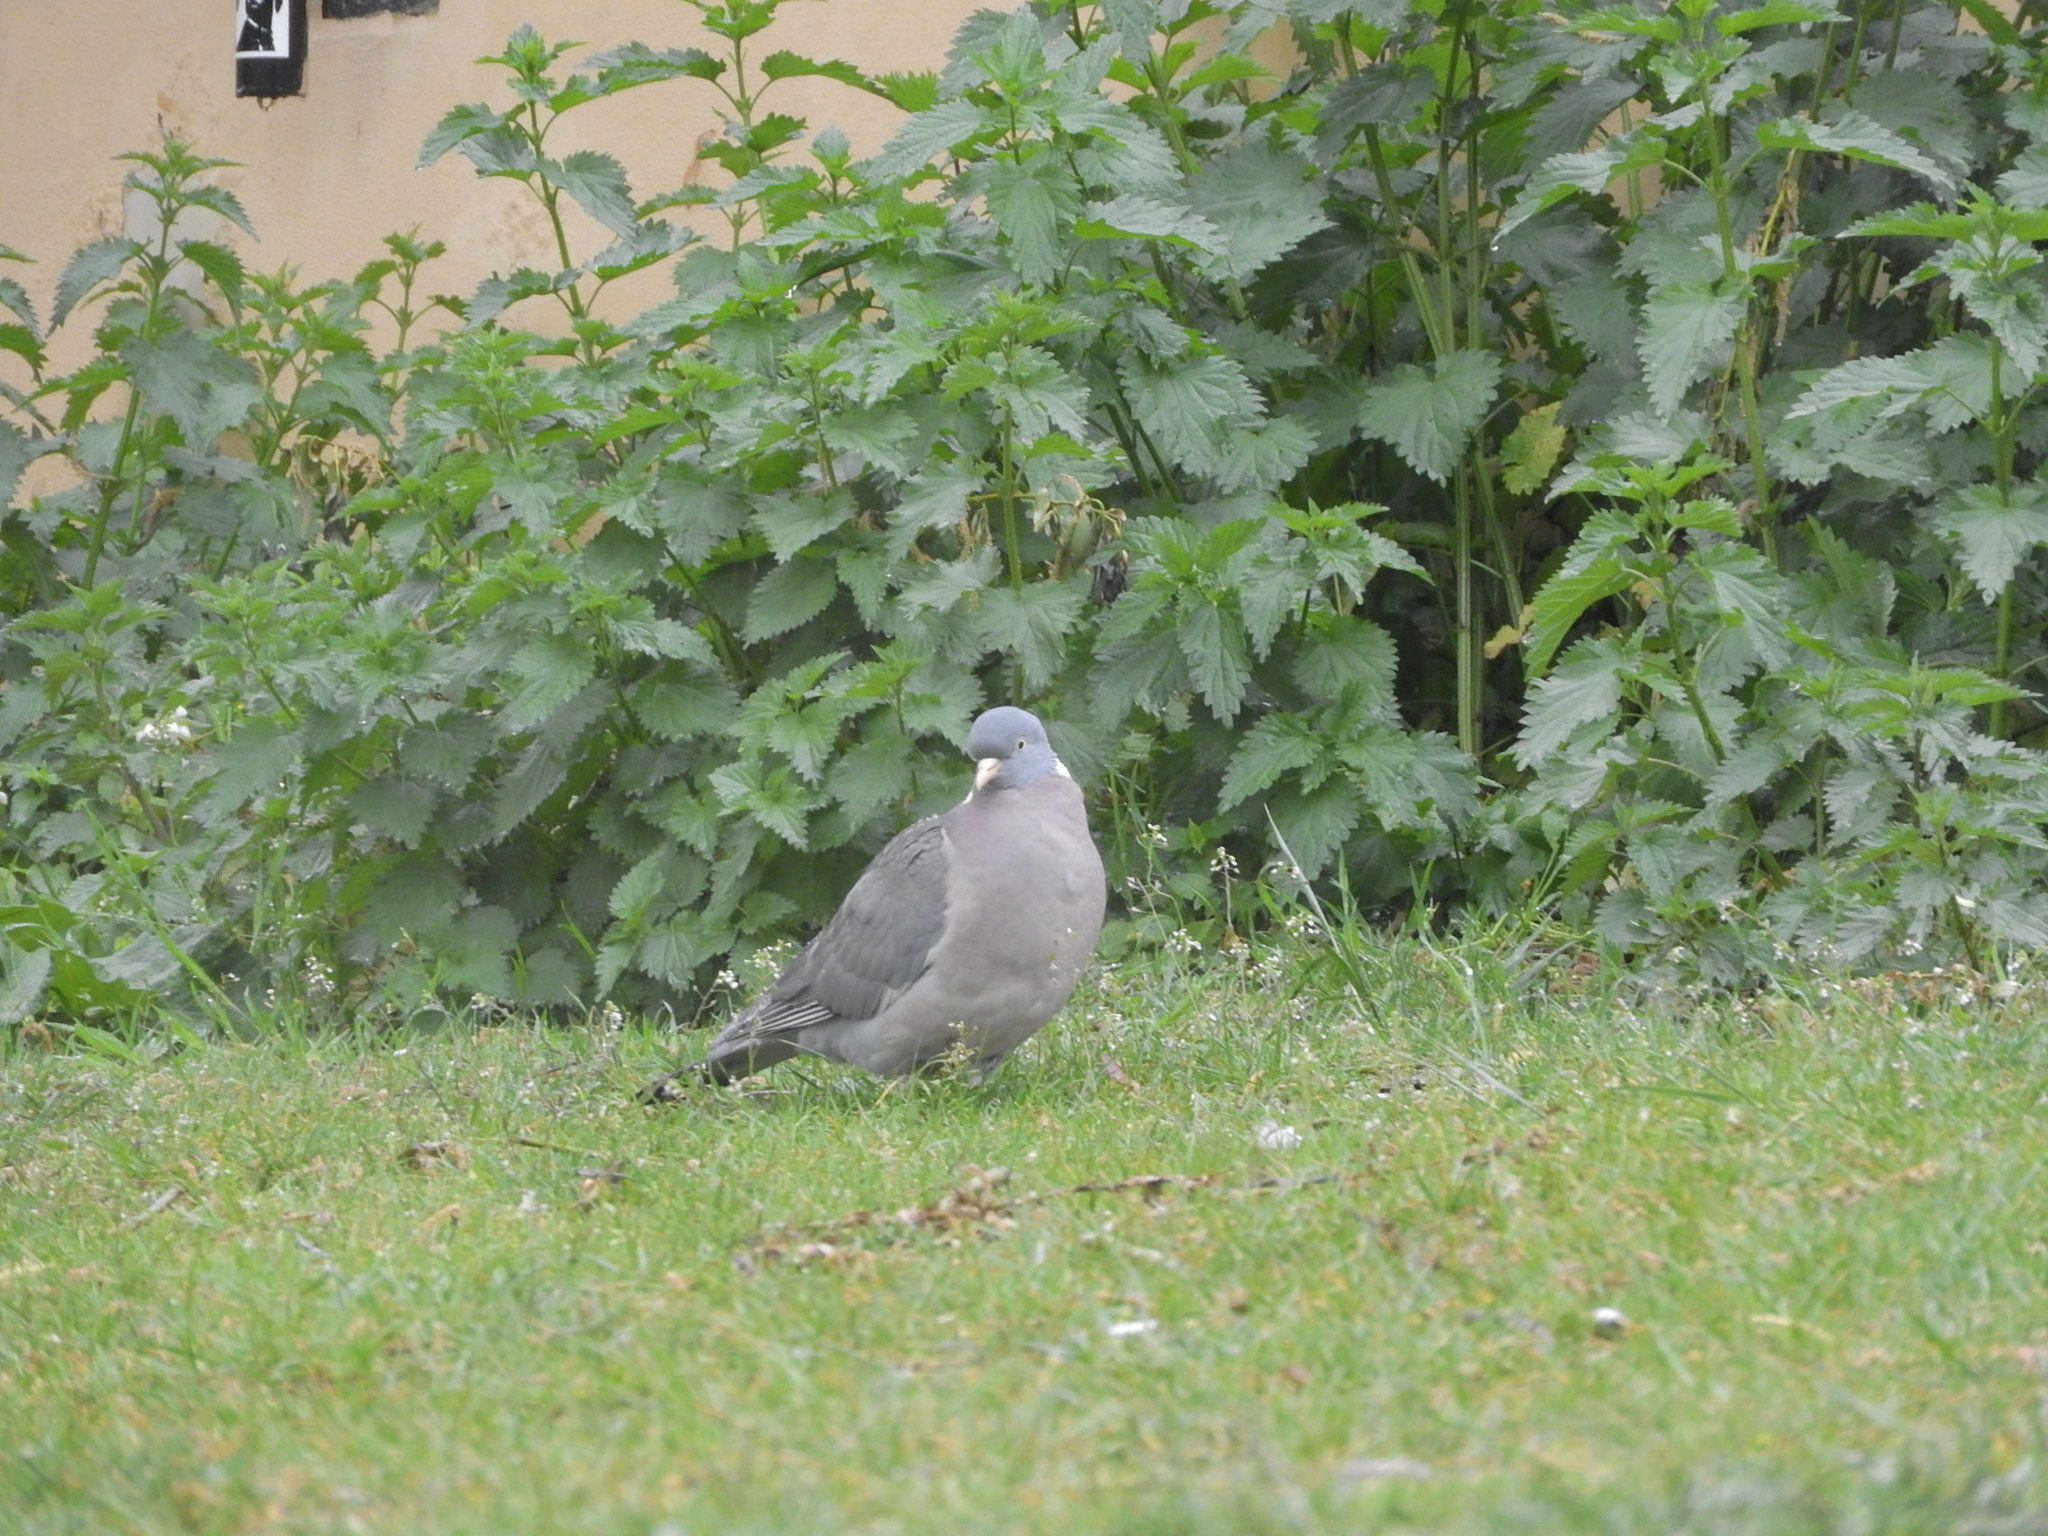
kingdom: Animalia
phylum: Chordata
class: Aves
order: Columbiformes
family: Columbidae
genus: Columba
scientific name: Columba palumbus
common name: Common wood pigeon
